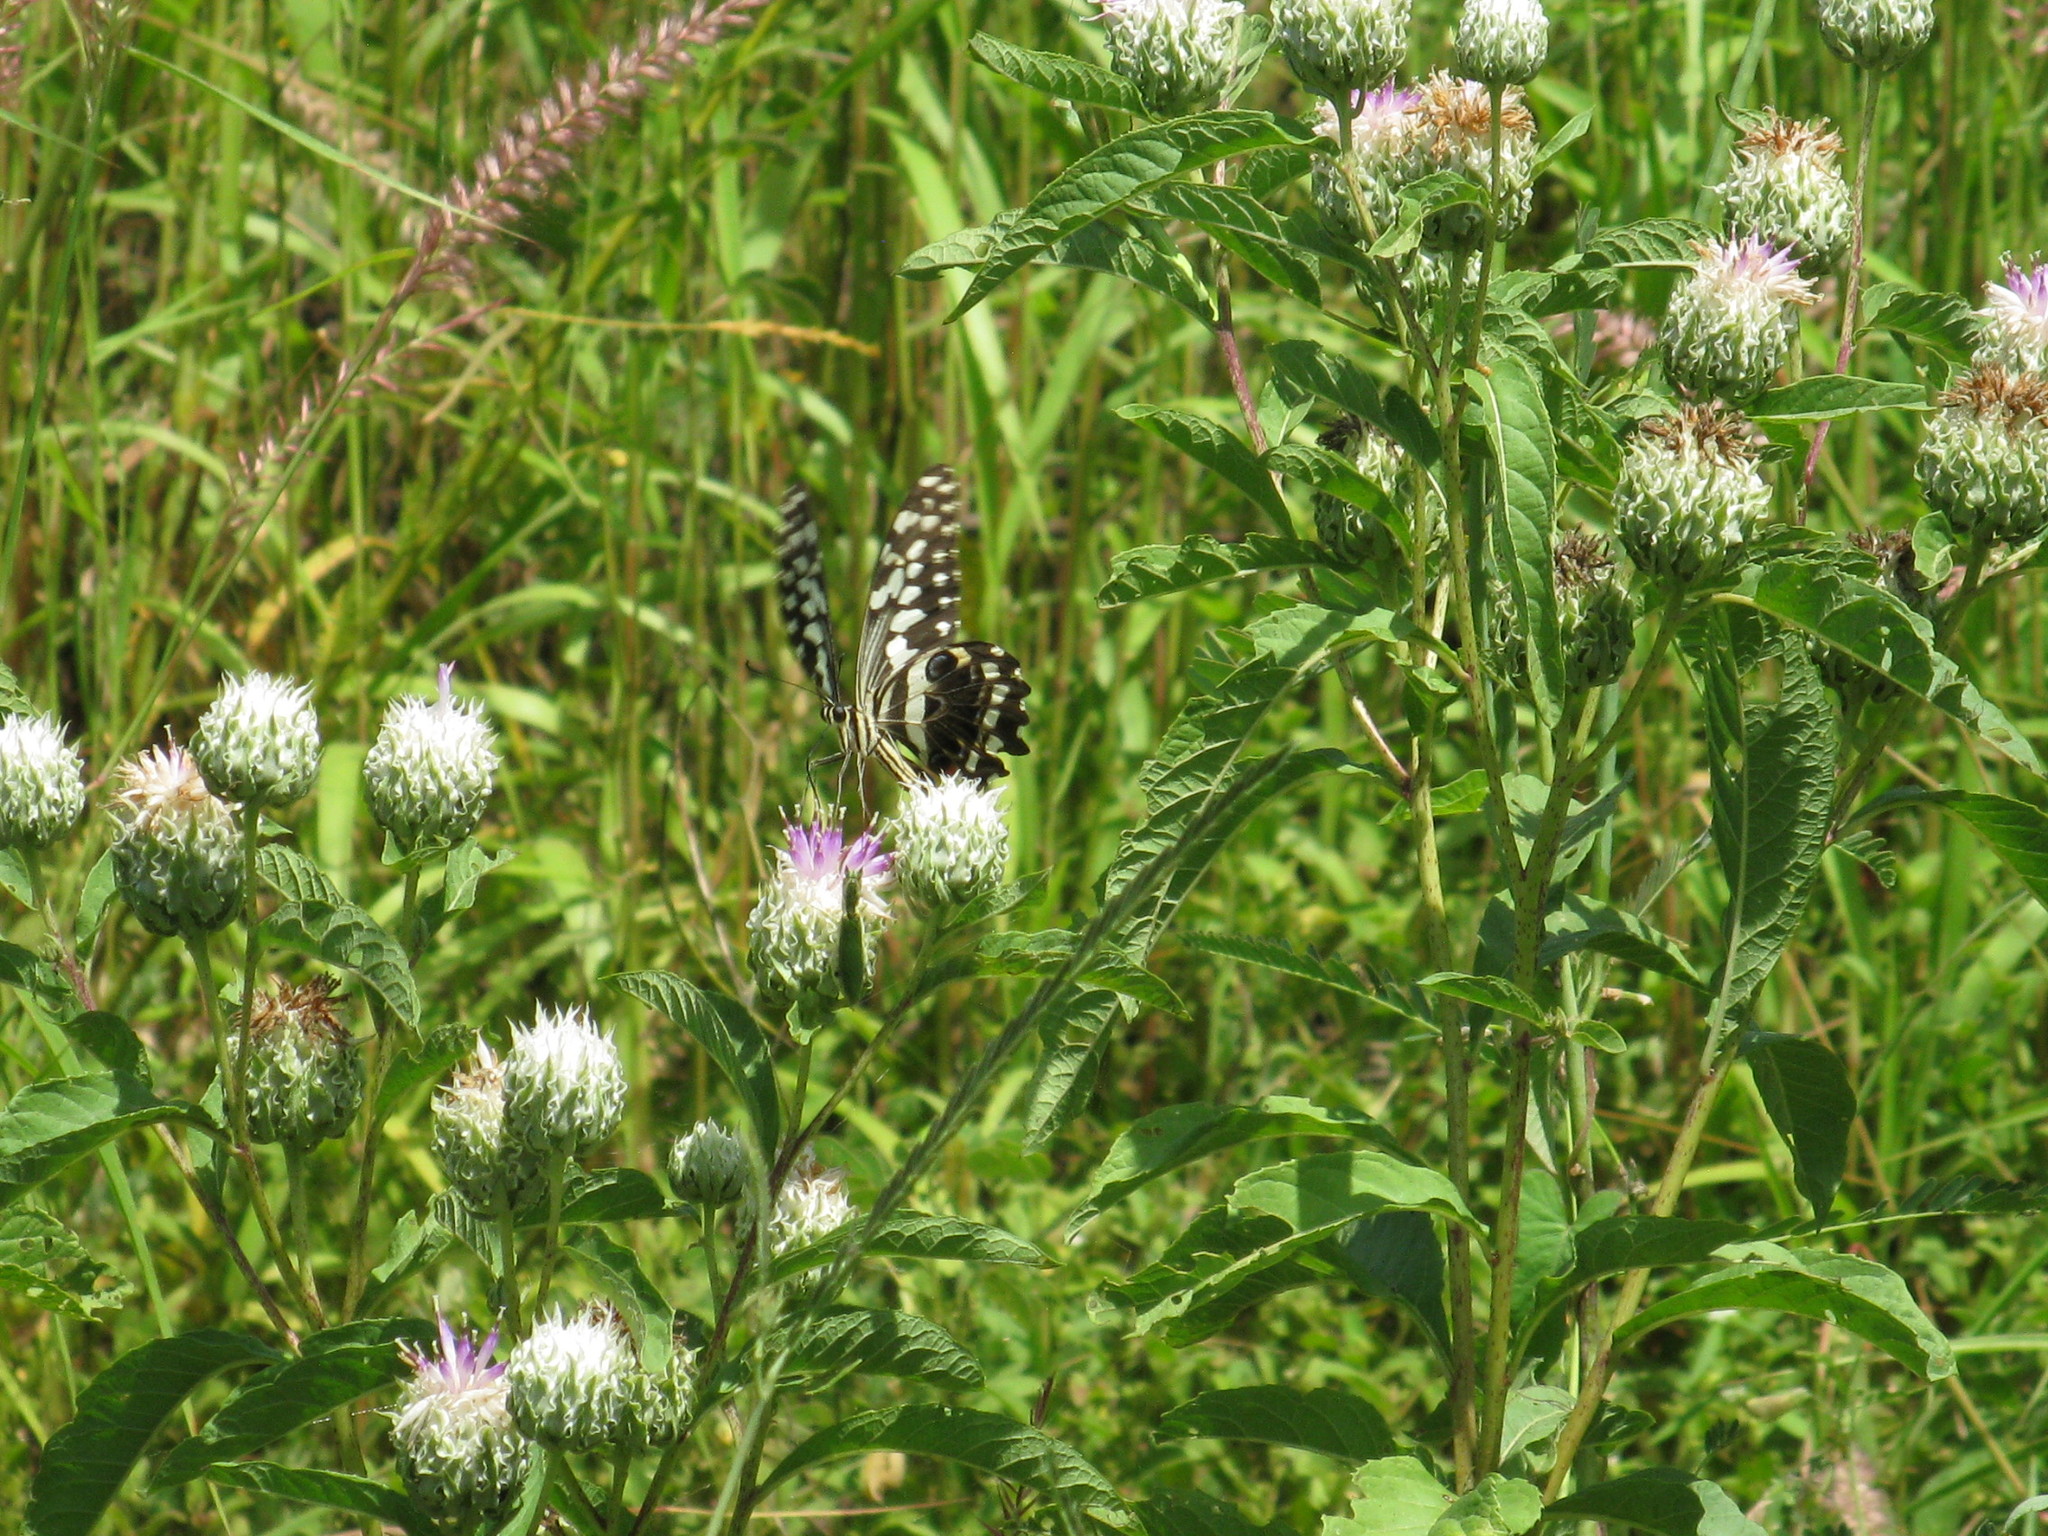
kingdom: Animalia
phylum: Arthropoda
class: Insecta
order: Lepidoptera
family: Papilionidae
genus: Papilio
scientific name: Papilio demodocus
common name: Christmas butterfly
